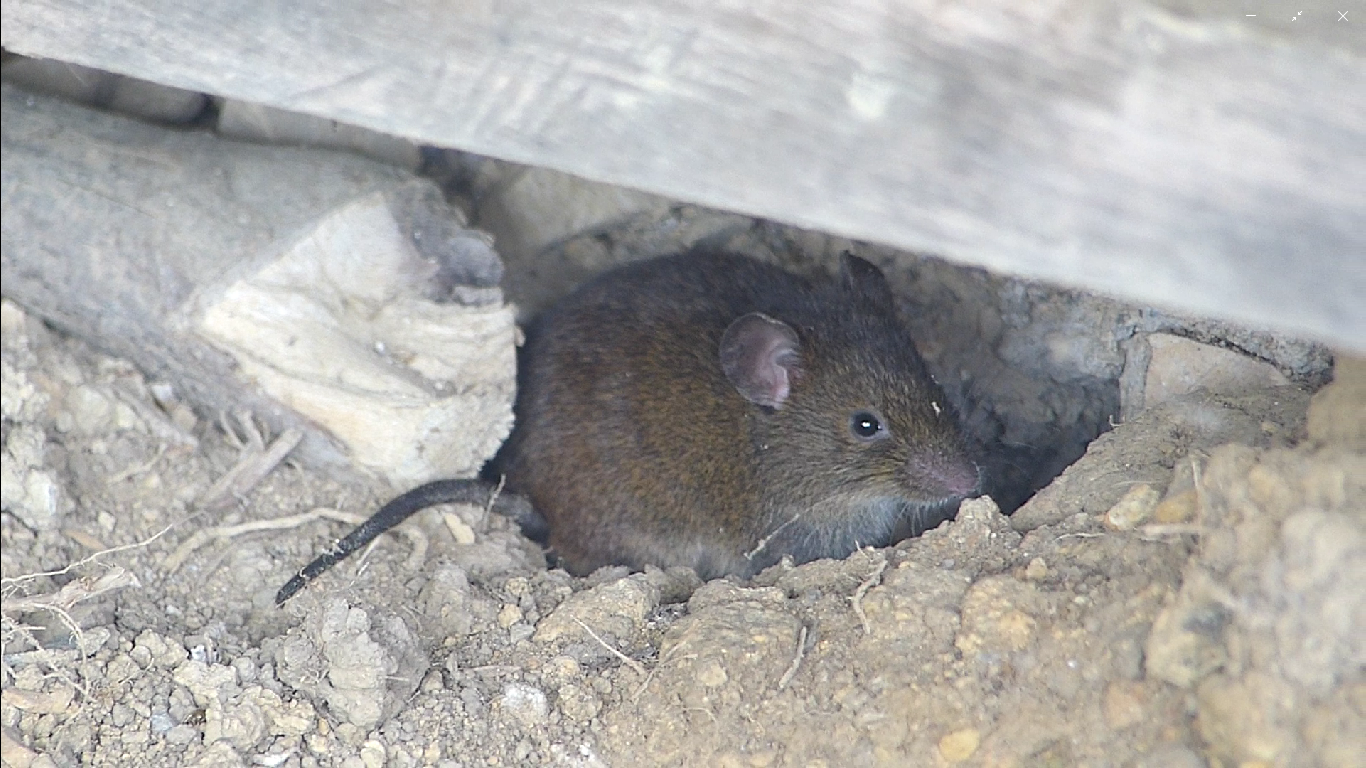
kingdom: Animalia
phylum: Chordata
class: Mammalia
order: Rodentia
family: Muridae
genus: Mus
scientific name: Mus musculus
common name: House mouse
